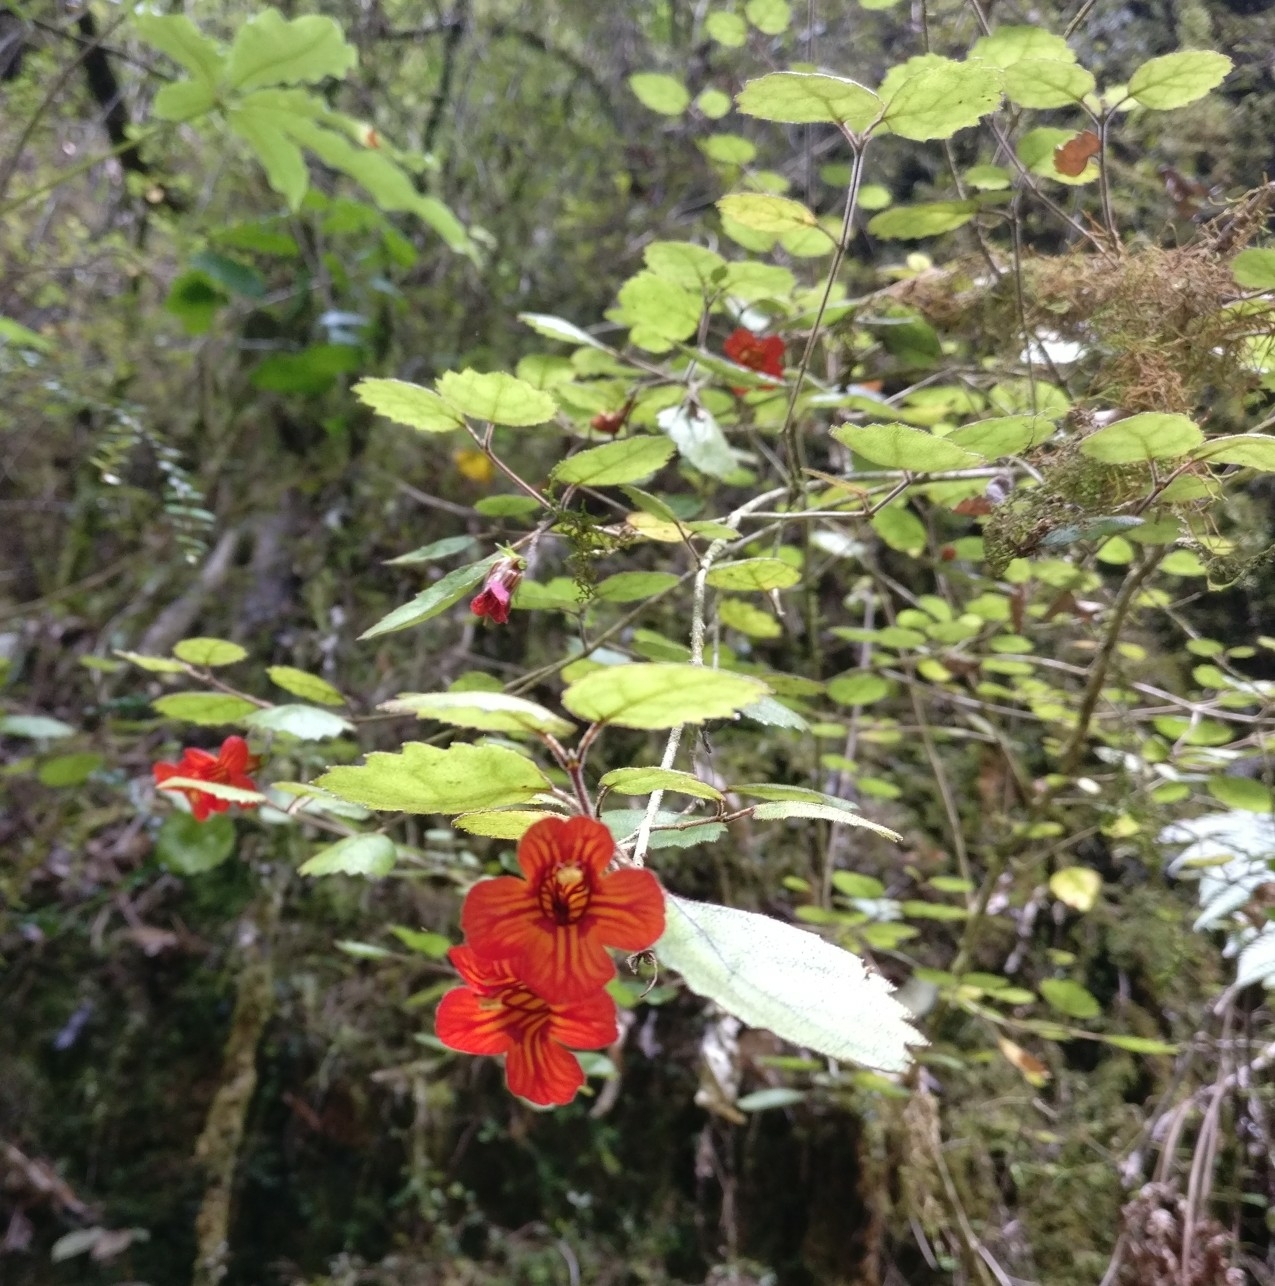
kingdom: Plantae
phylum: Tracheophyta
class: Magnoliopsida
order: Lamiales
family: Gesneriaceae
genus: Rhabdothamnus
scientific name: Rhabdothamnus solandri
